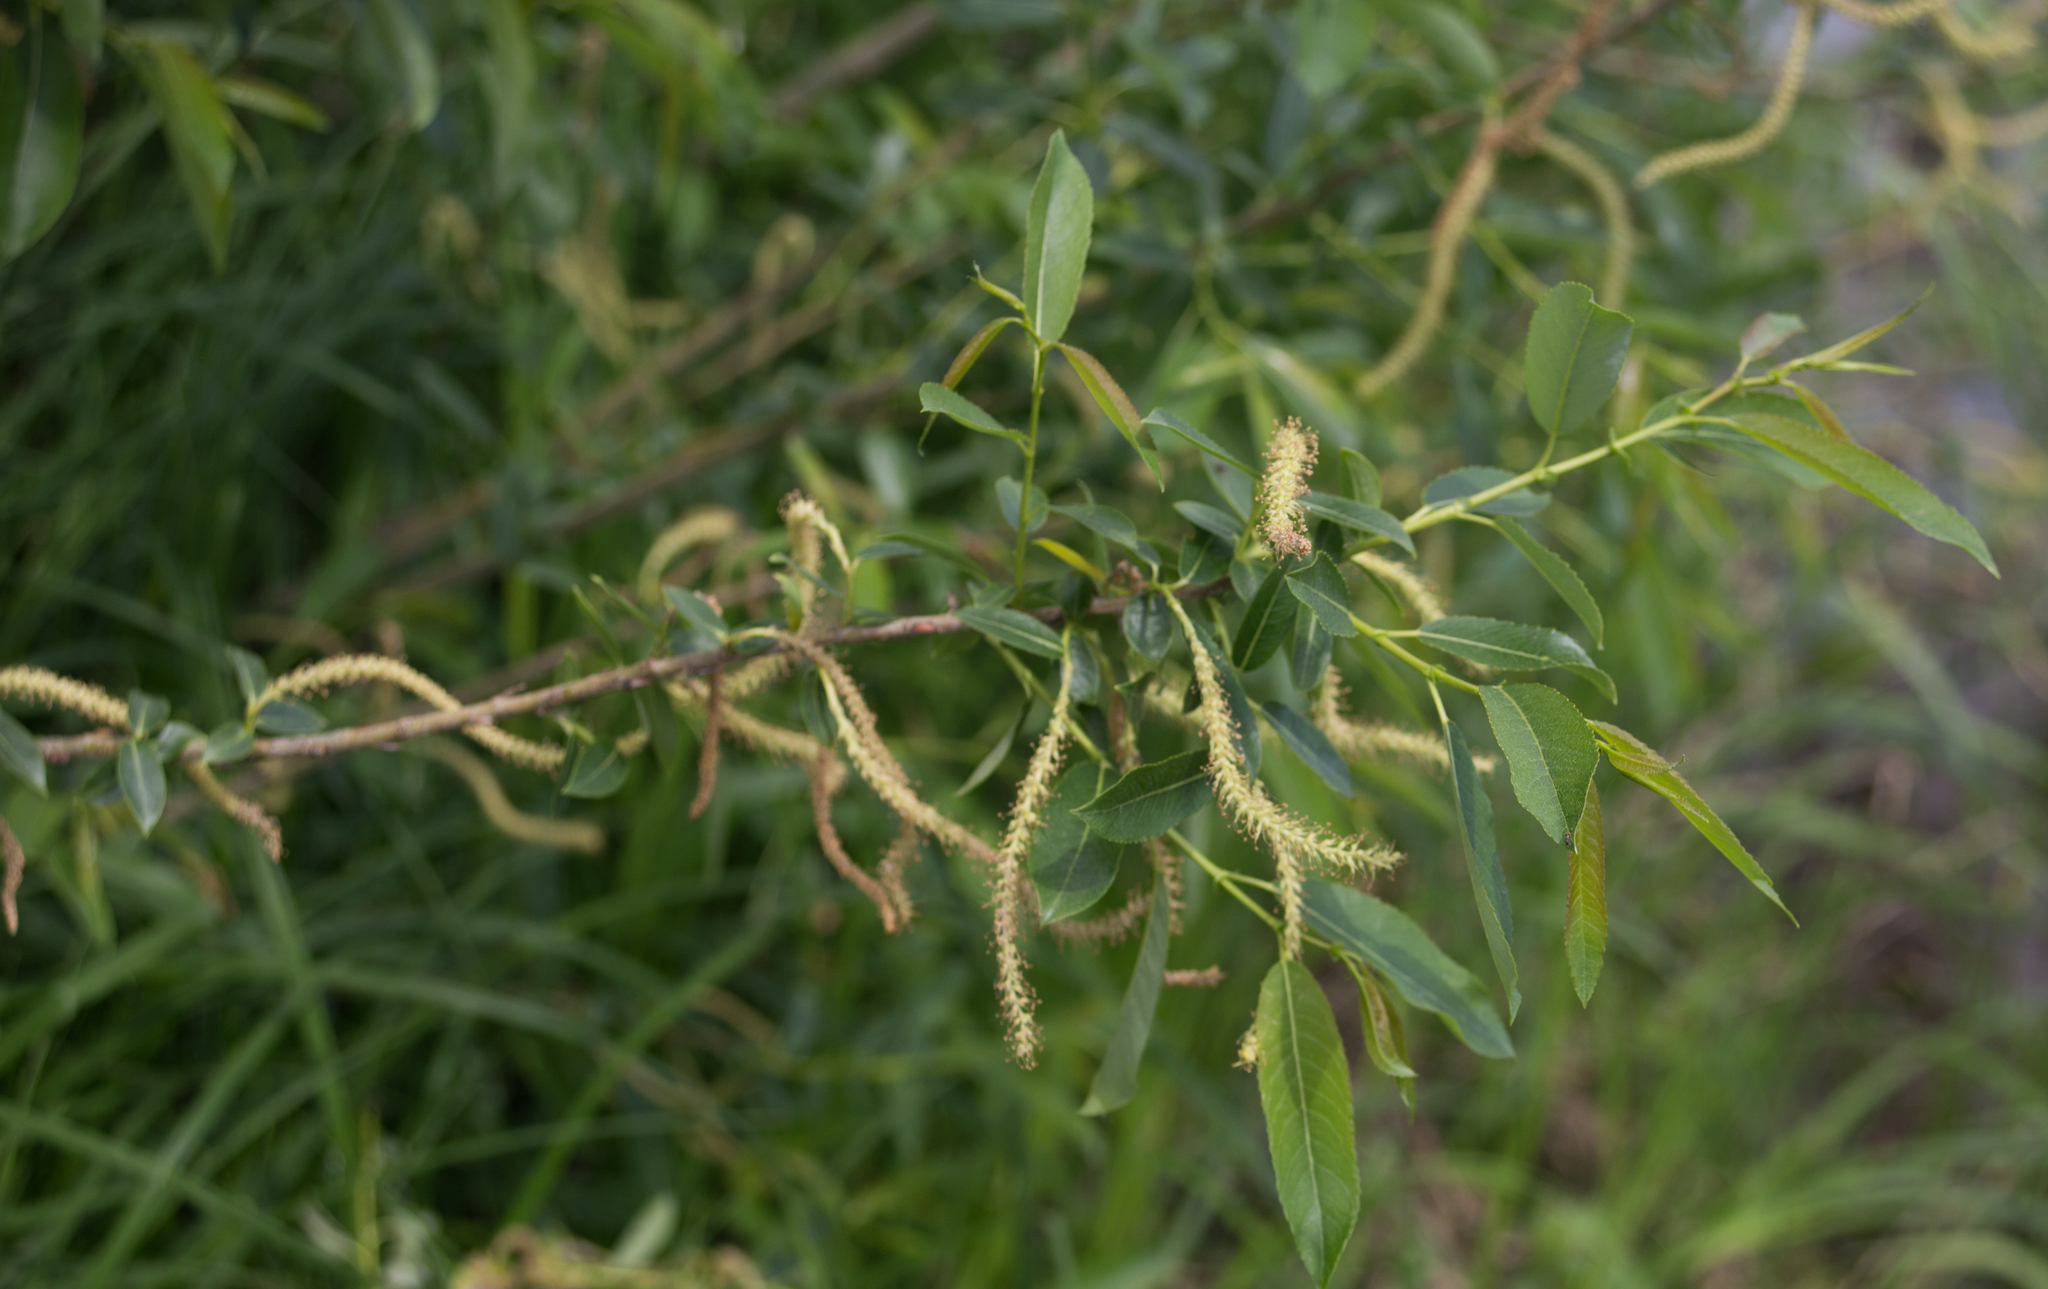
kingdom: Plantae
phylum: Tracheophyta
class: Magnoliopsida
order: Malpighiales
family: Salicaceae
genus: Salix
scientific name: Salix triandra
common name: Almond willow
